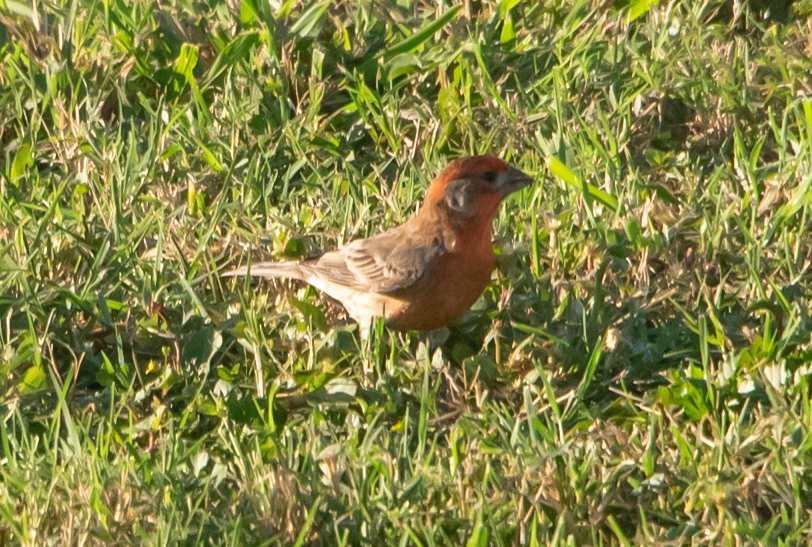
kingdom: Animalia
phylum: Chordata
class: Aves
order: Passeriformes
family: Fringillidae
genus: Haemorhous
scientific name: Haemorhous mexicanus
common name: House finch
